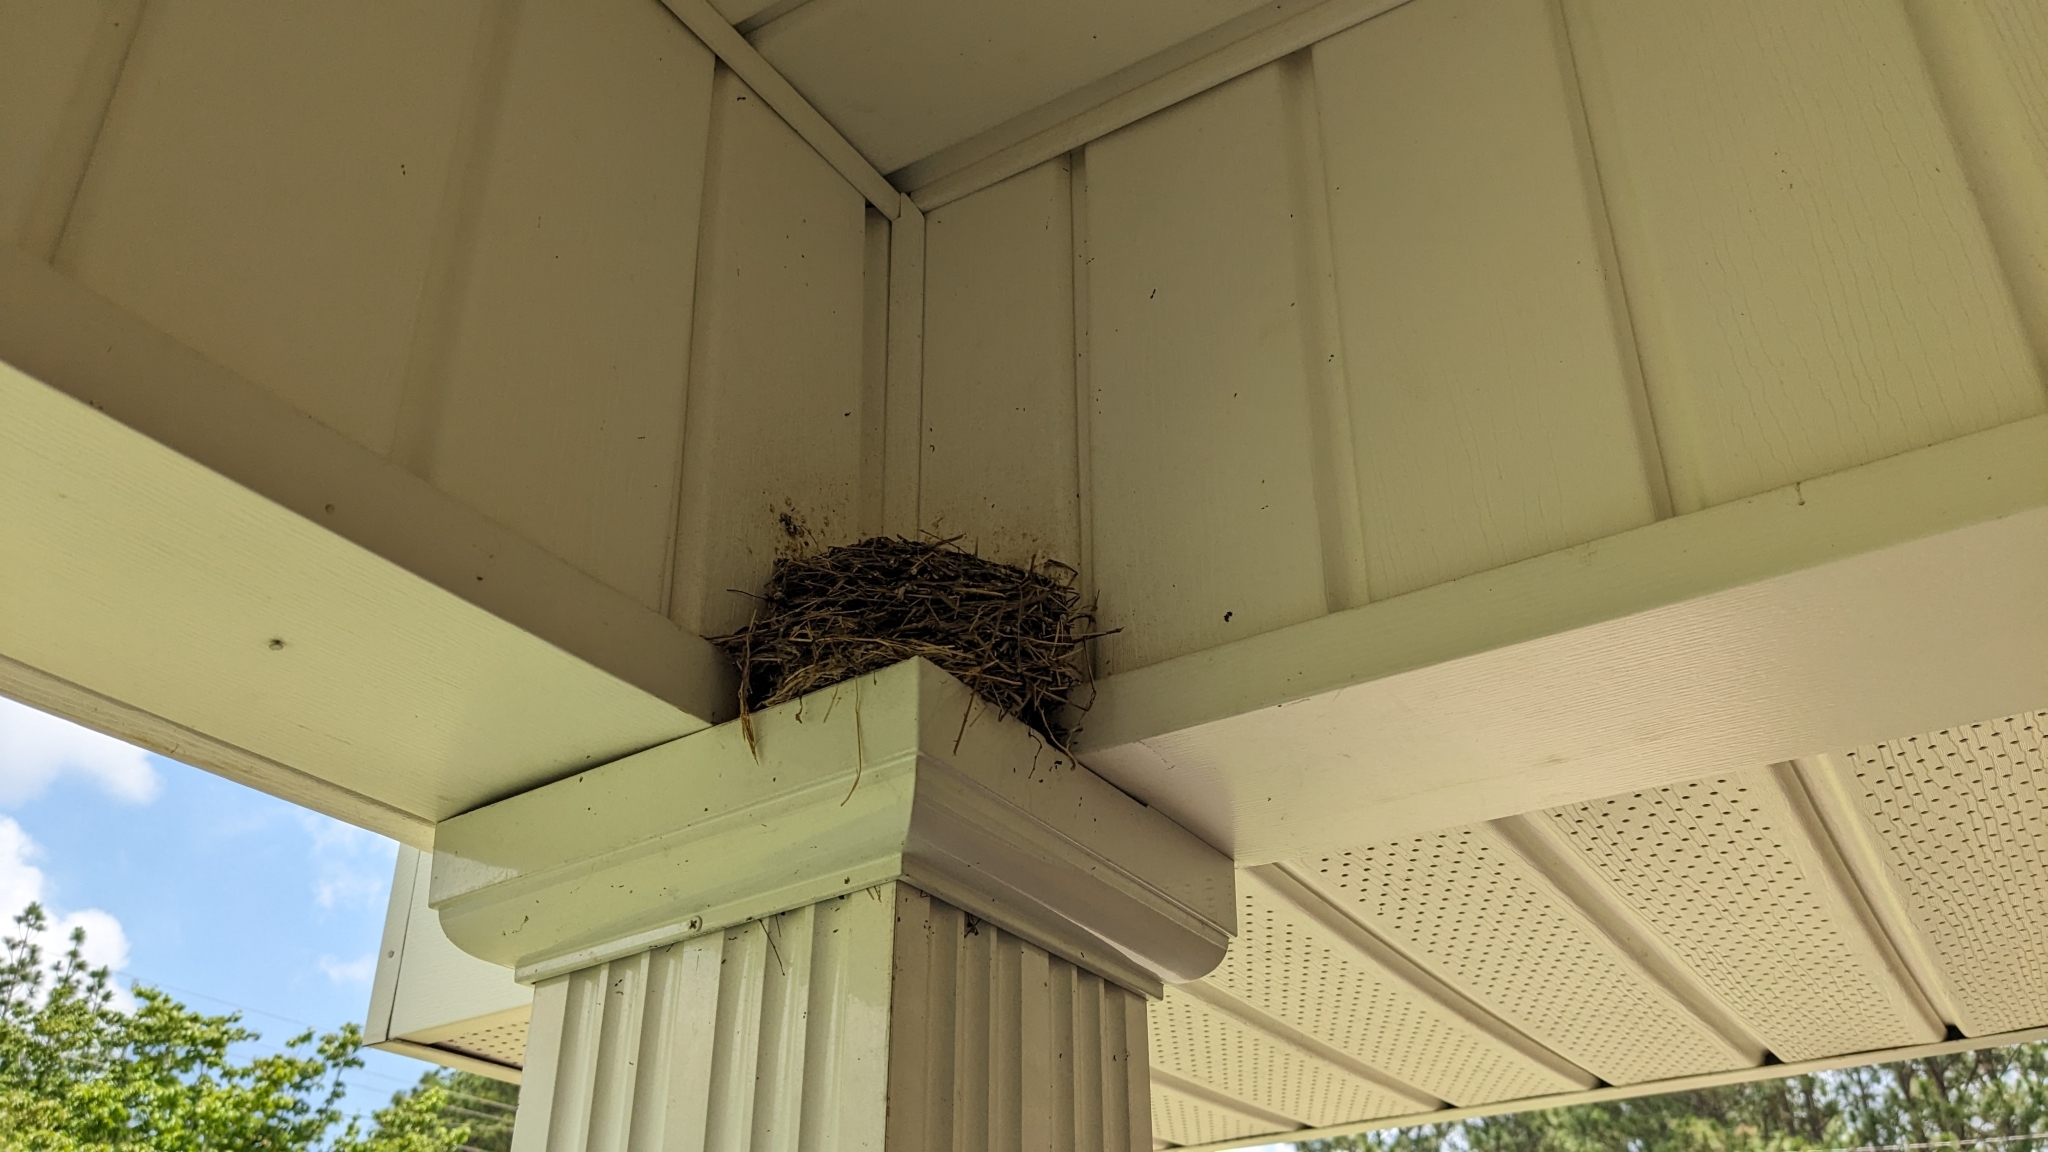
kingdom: Animalia
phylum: Chordata
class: Aves
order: Passeriformes
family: Turdidae
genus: Turdus
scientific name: Turdus migratorius
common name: American robin
